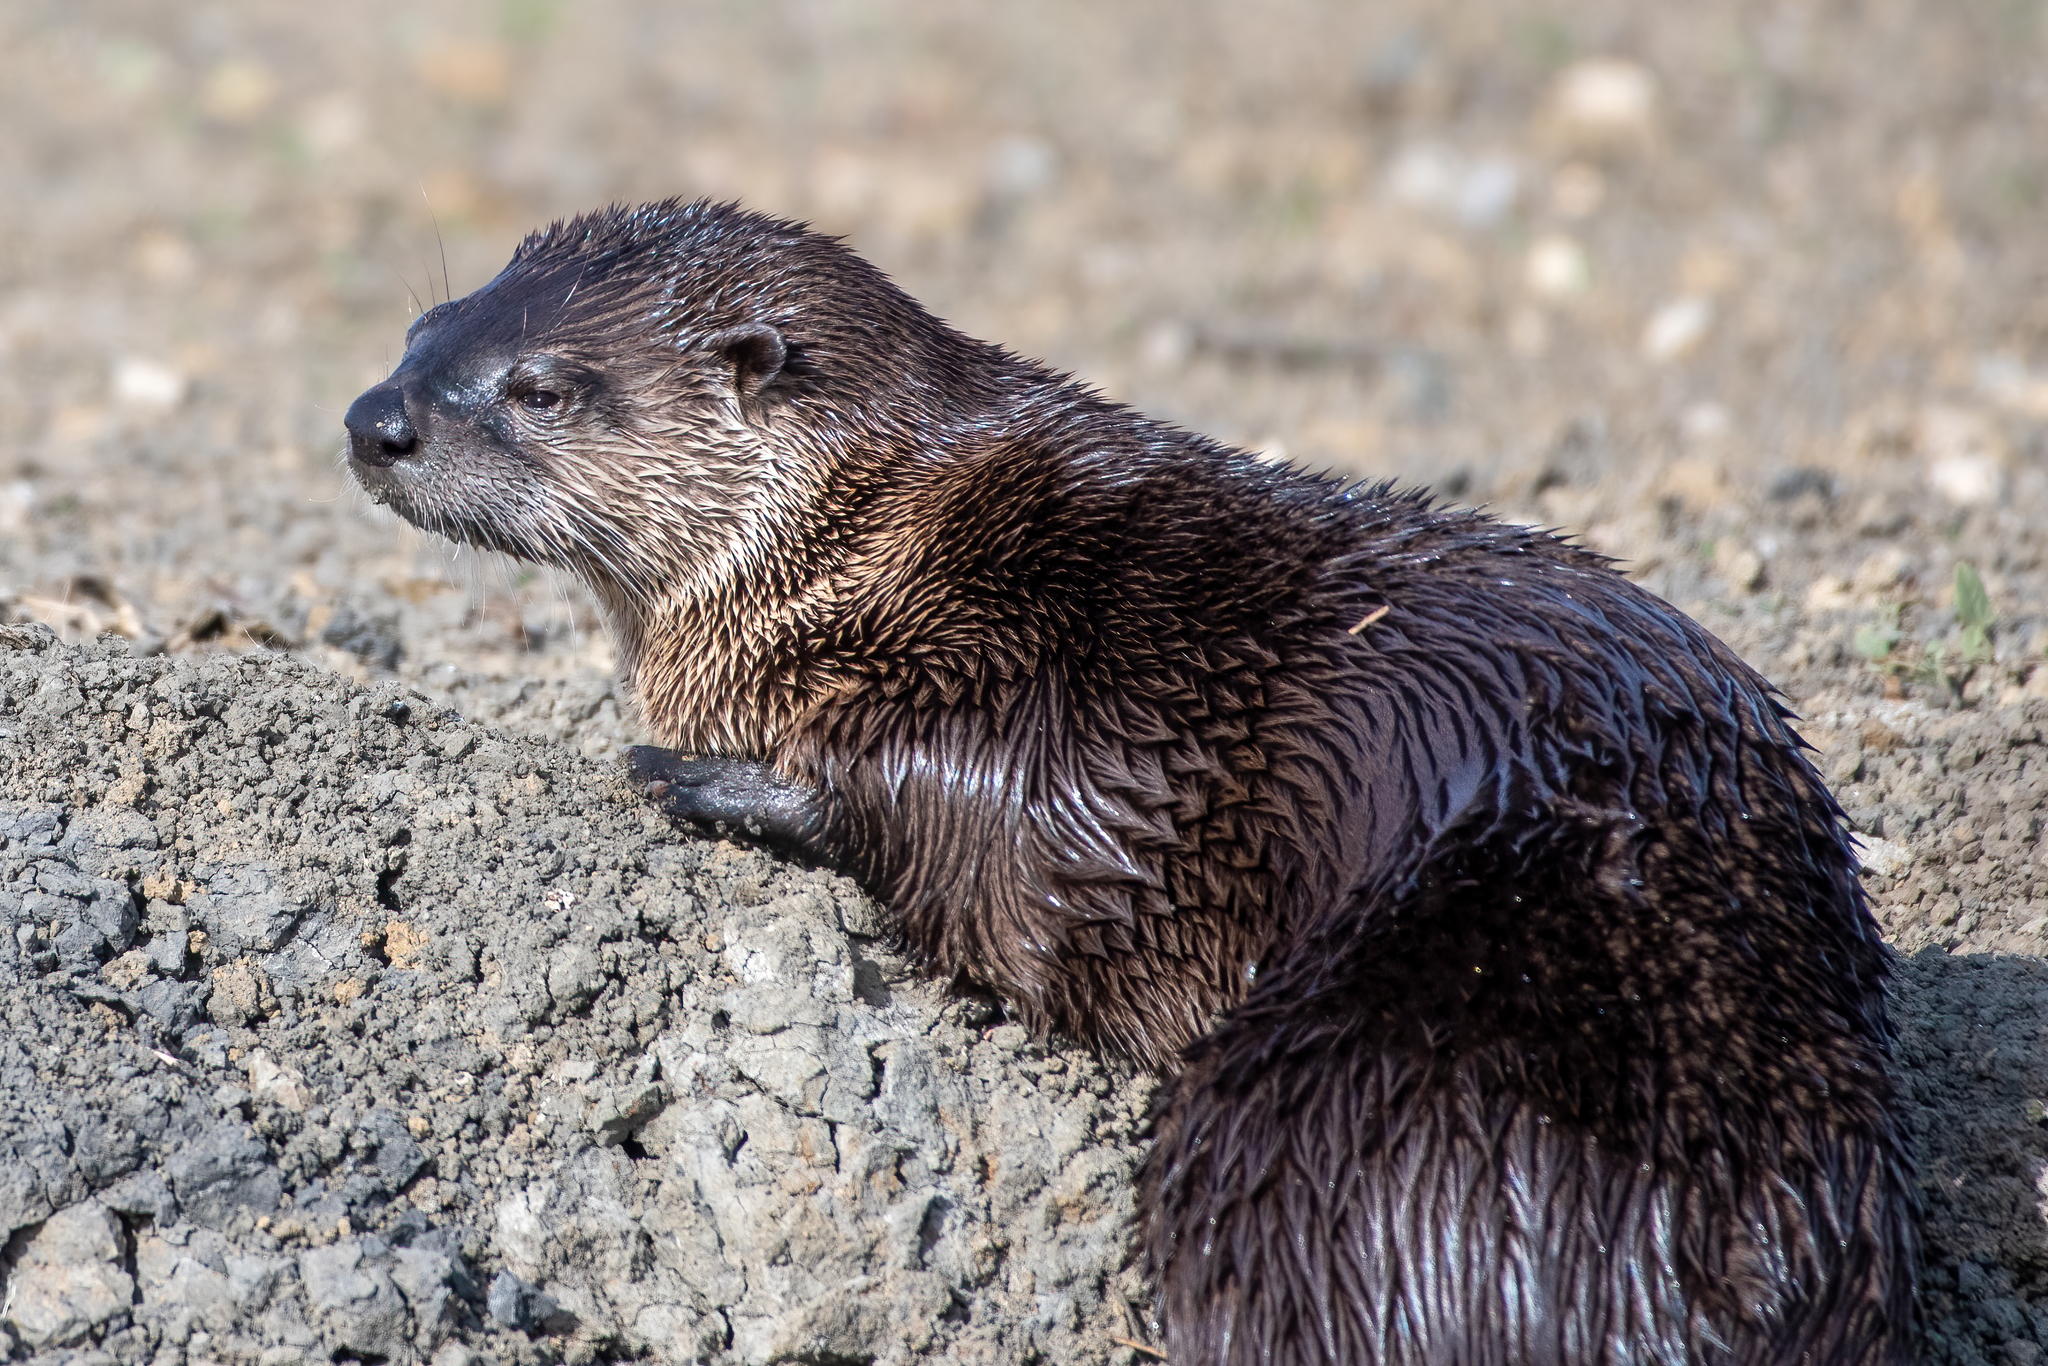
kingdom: Animalia
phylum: Chordata
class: Mammalia
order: Carnivora
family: Mustelidae
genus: Lontra
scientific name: Lontra canadensis
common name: North american river otter
